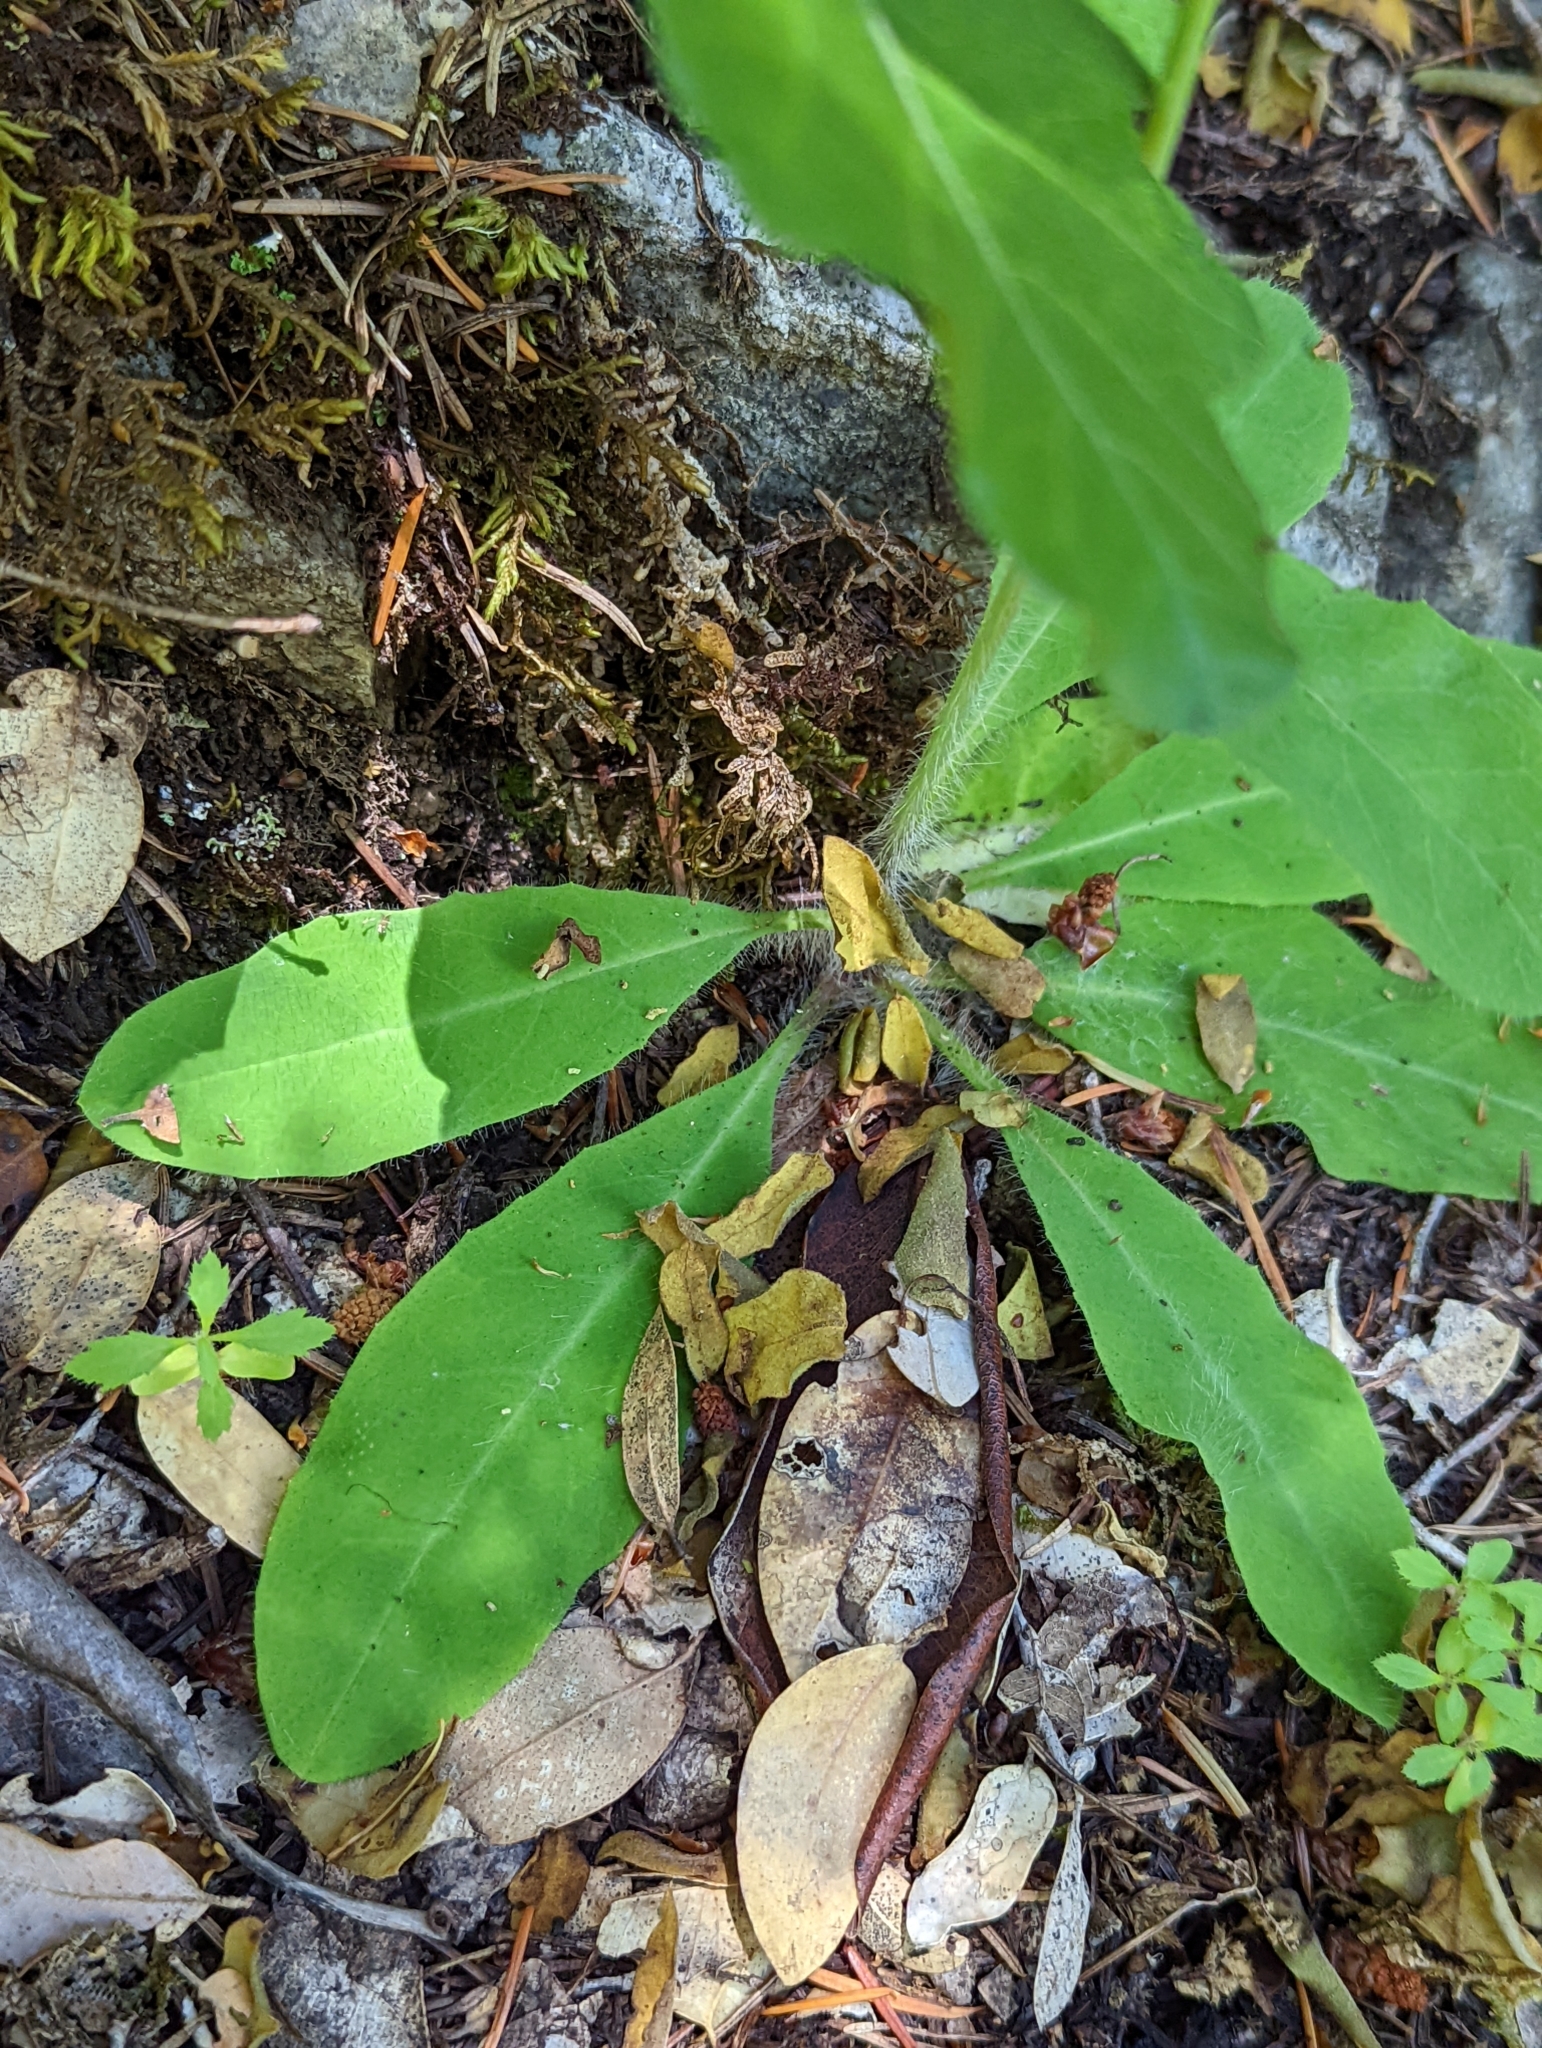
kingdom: Plantae
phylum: Tracheophyta
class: Magnoliopsida
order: Asterales
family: Asteraceae
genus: Hieracium
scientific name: Hieracium albiflorum
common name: White hawkweed
